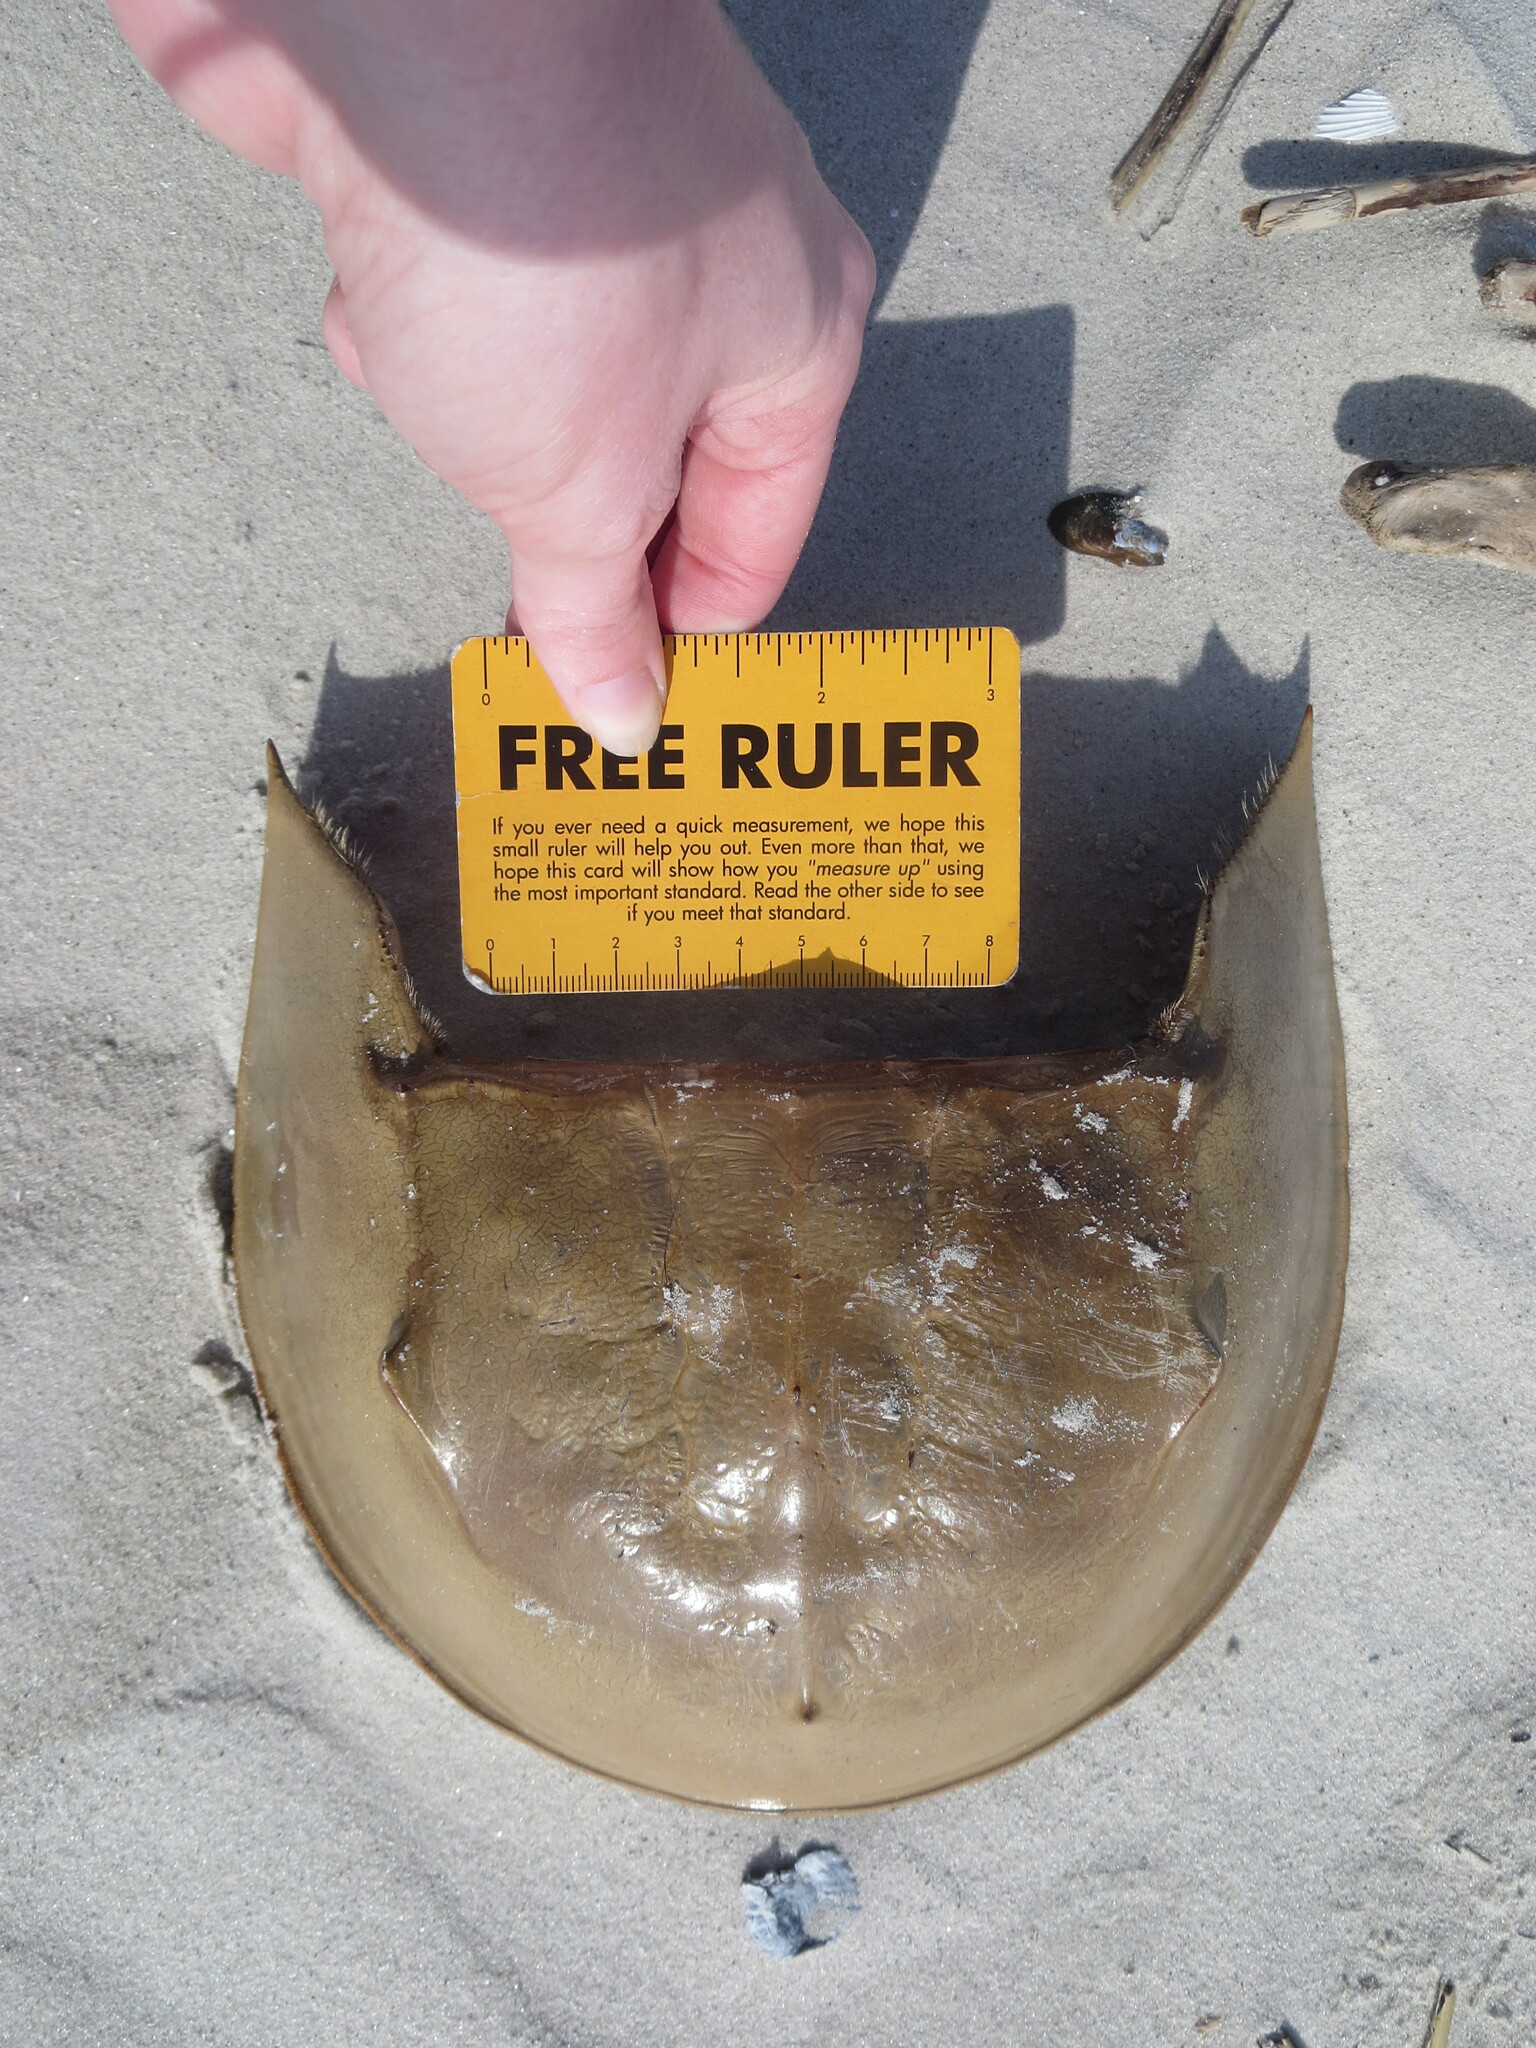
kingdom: Animalia
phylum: Arthropoda
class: Merostomata
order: Xiphosurida
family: Limulidae
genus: Limulus
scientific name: Limulus polyphemus
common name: Horseshoe crab
